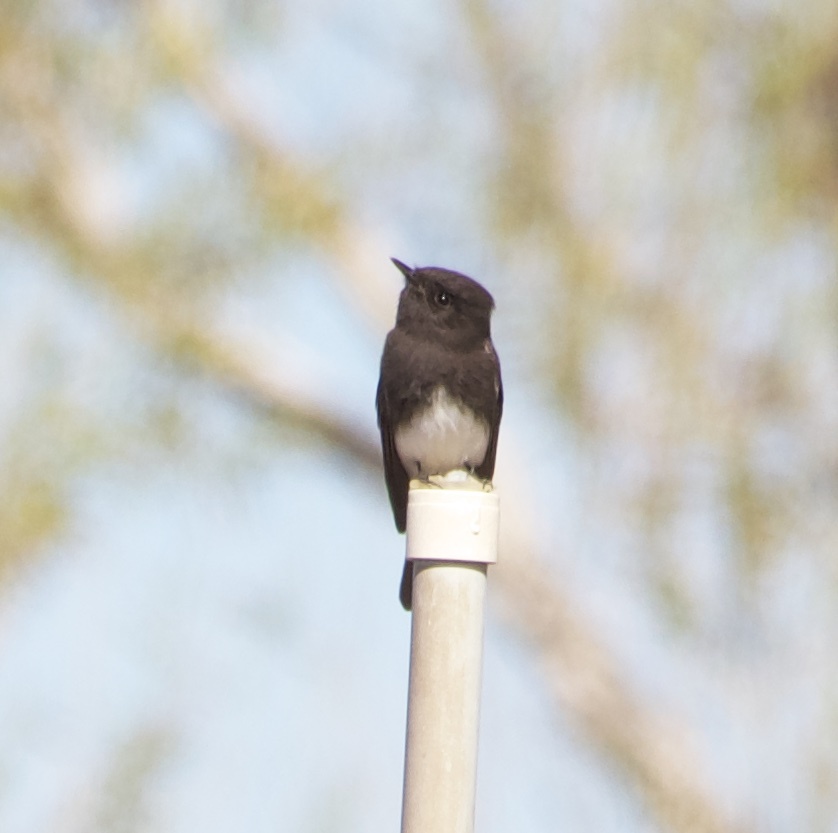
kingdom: Animalia
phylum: Chordata
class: Aves
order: Passeriformes
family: Tyrannidae
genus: Sayornis
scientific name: Sayornis nigricans
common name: Black phoebe
